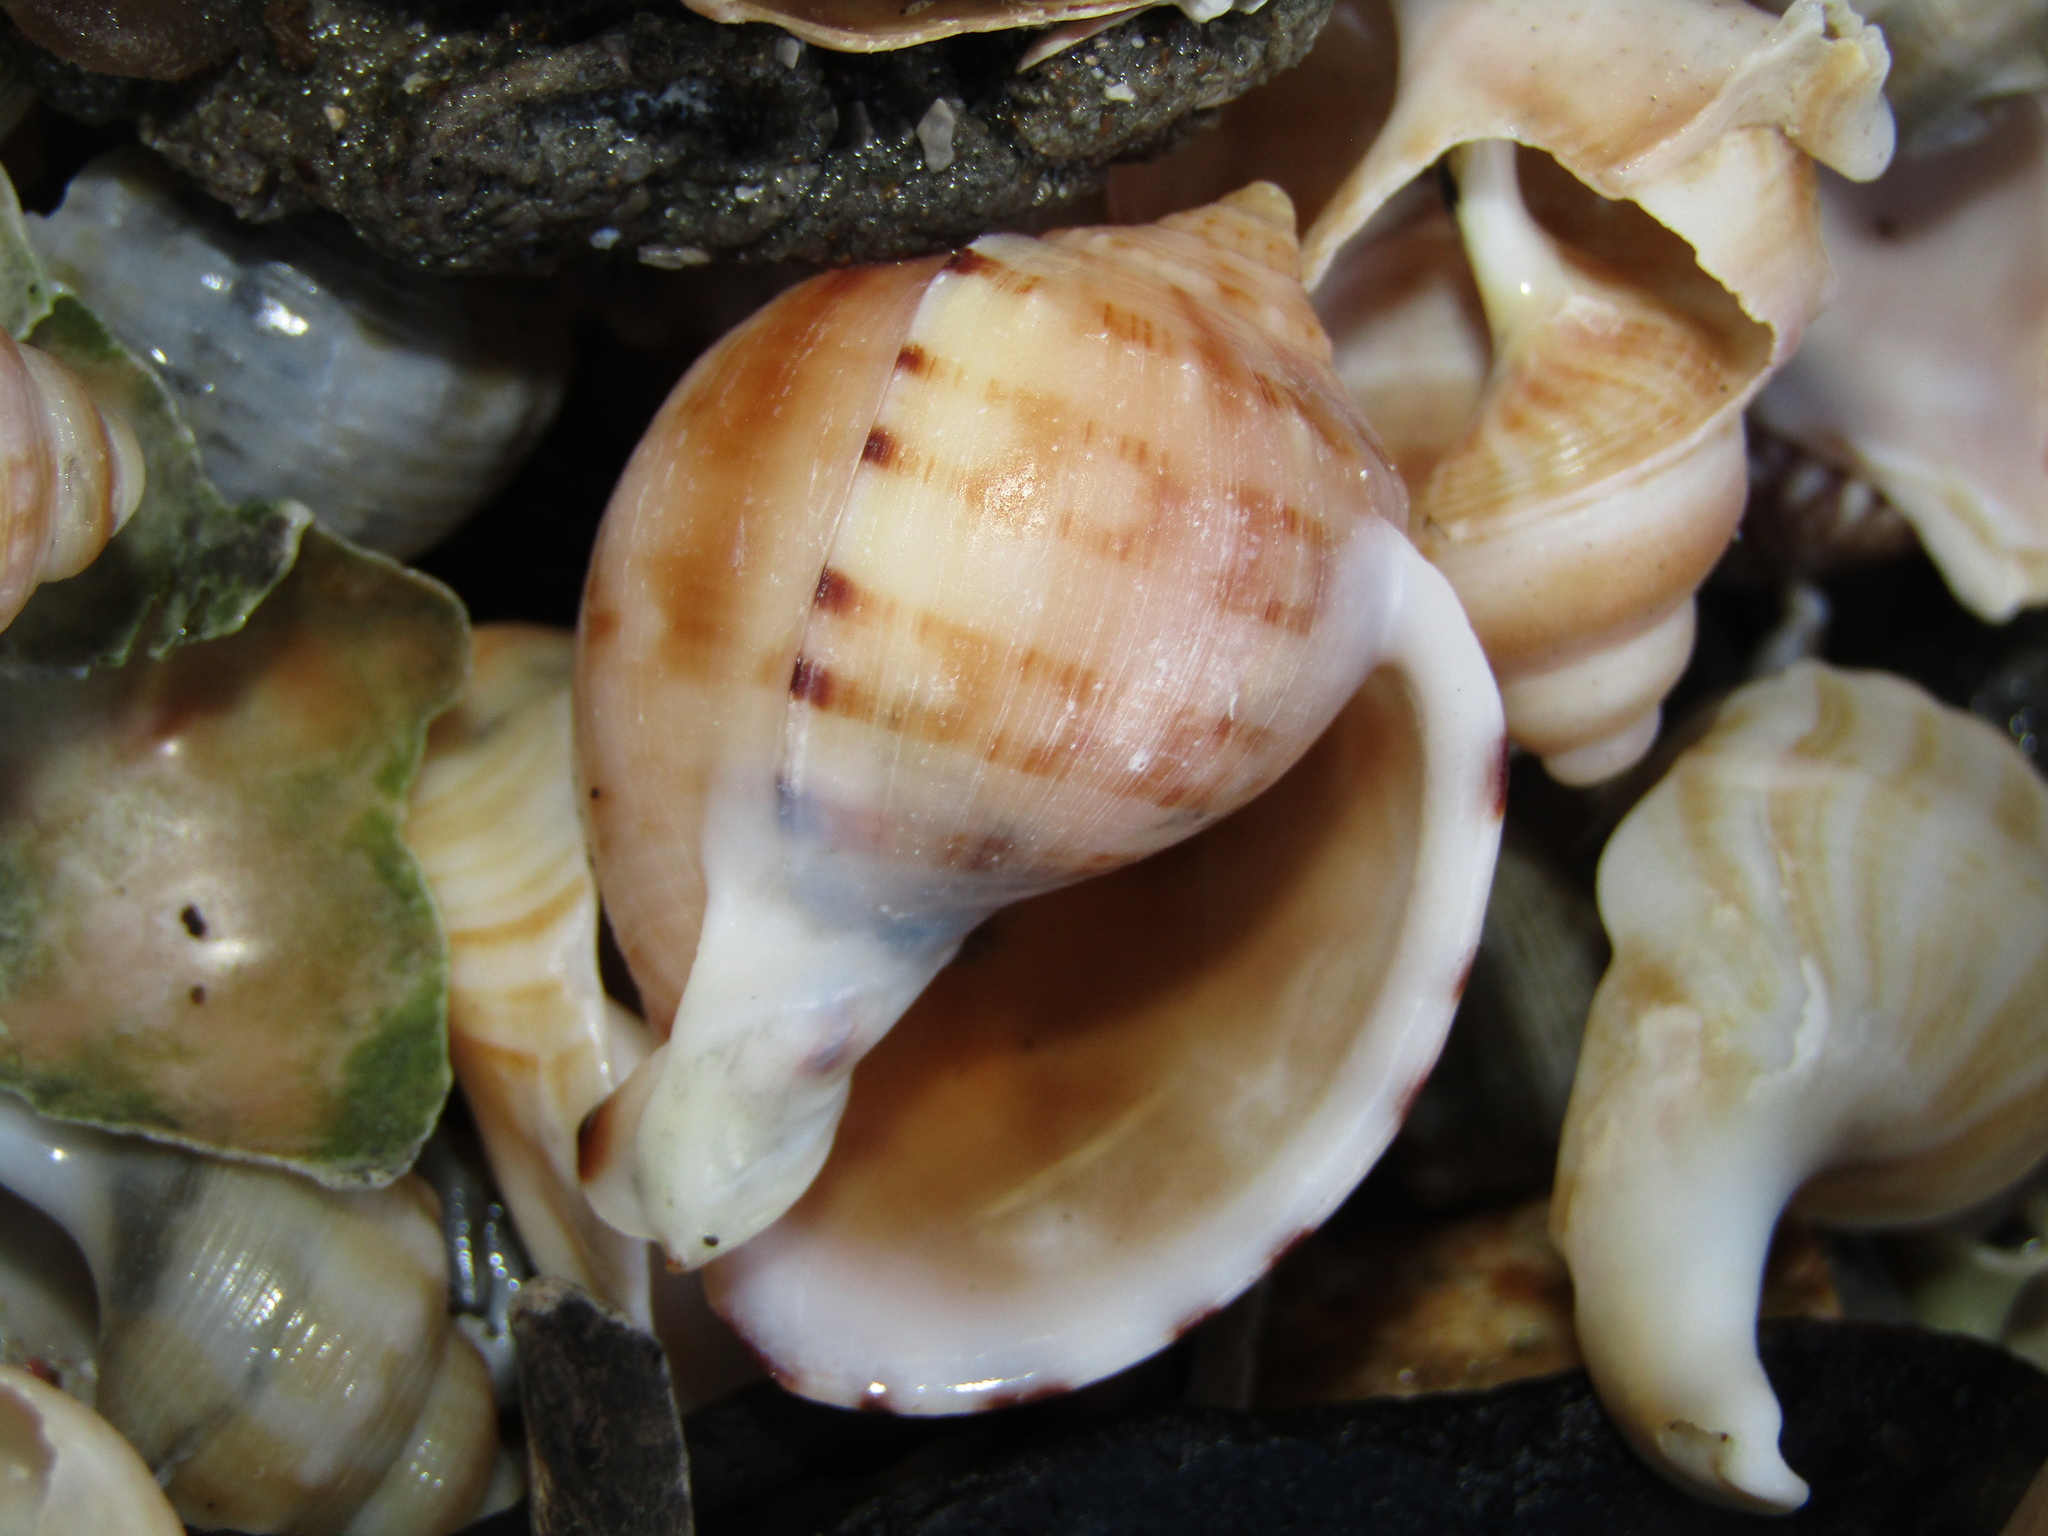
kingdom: Animalia
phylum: Mollusca
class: Gastropoda
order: Littorinimorpha
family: Cassidae
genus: Semicassis
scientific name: Semicassis pyrum
